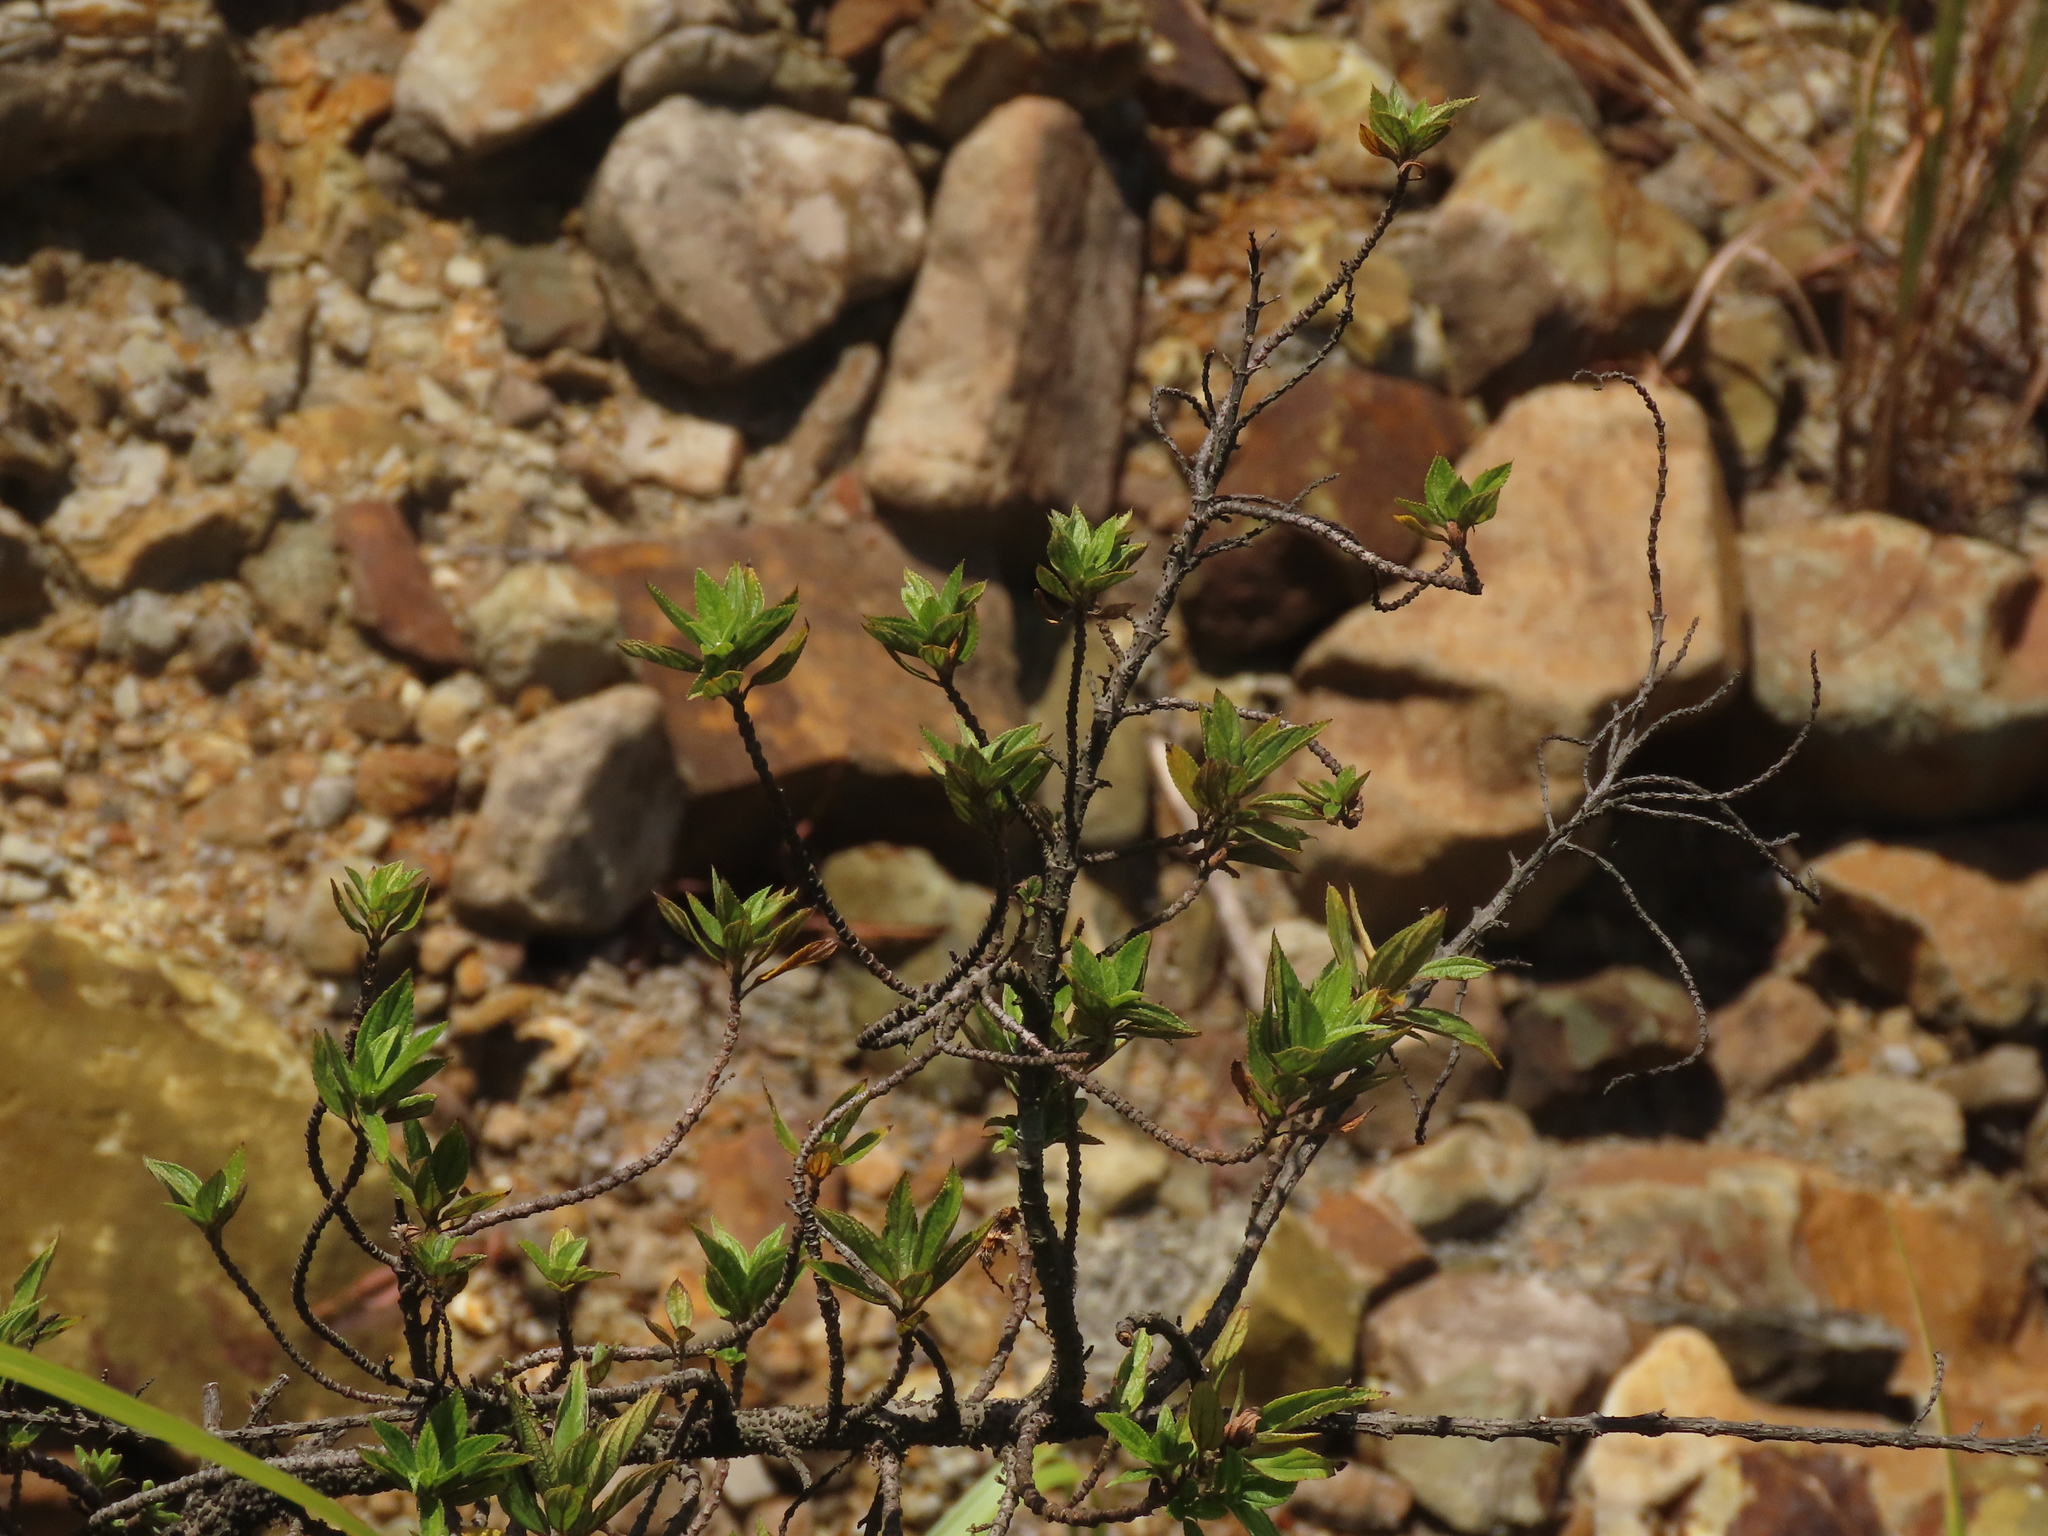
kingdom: Plantae
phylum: Tracheophyta
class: Magnoliopsida
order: Rosales
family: Urticaceae
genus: Boehmeria
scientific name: Boehmeria densiflora
